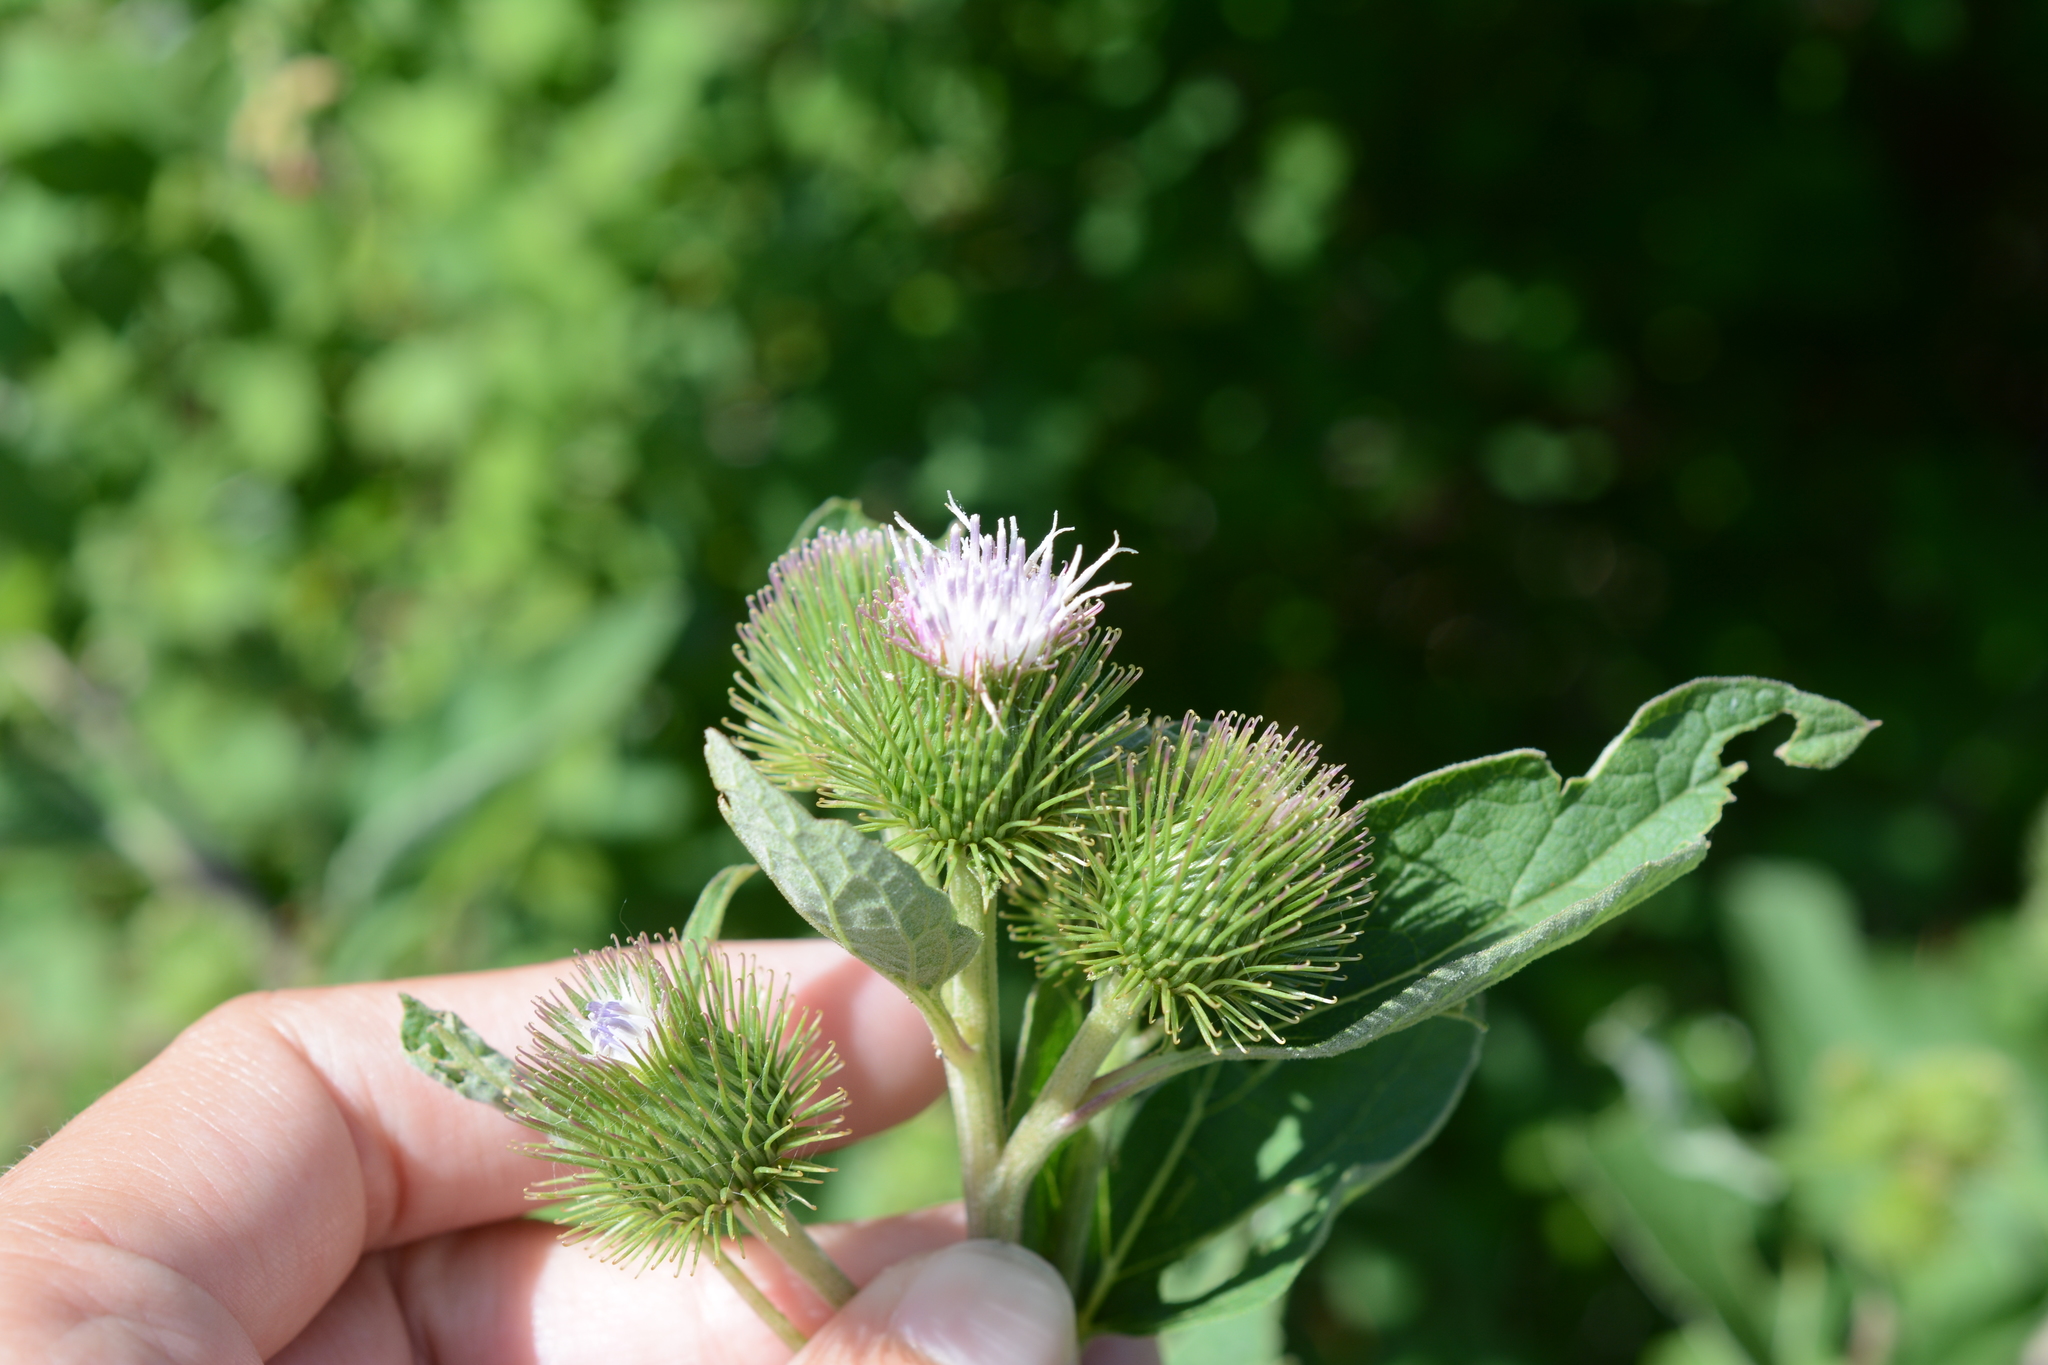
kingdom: Plantae
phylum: Tracheophyta
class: Magnoliopsida
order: Asterales
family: Asteraceae
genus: Arctium
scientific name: Arctium lappa
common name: Greater burdock
